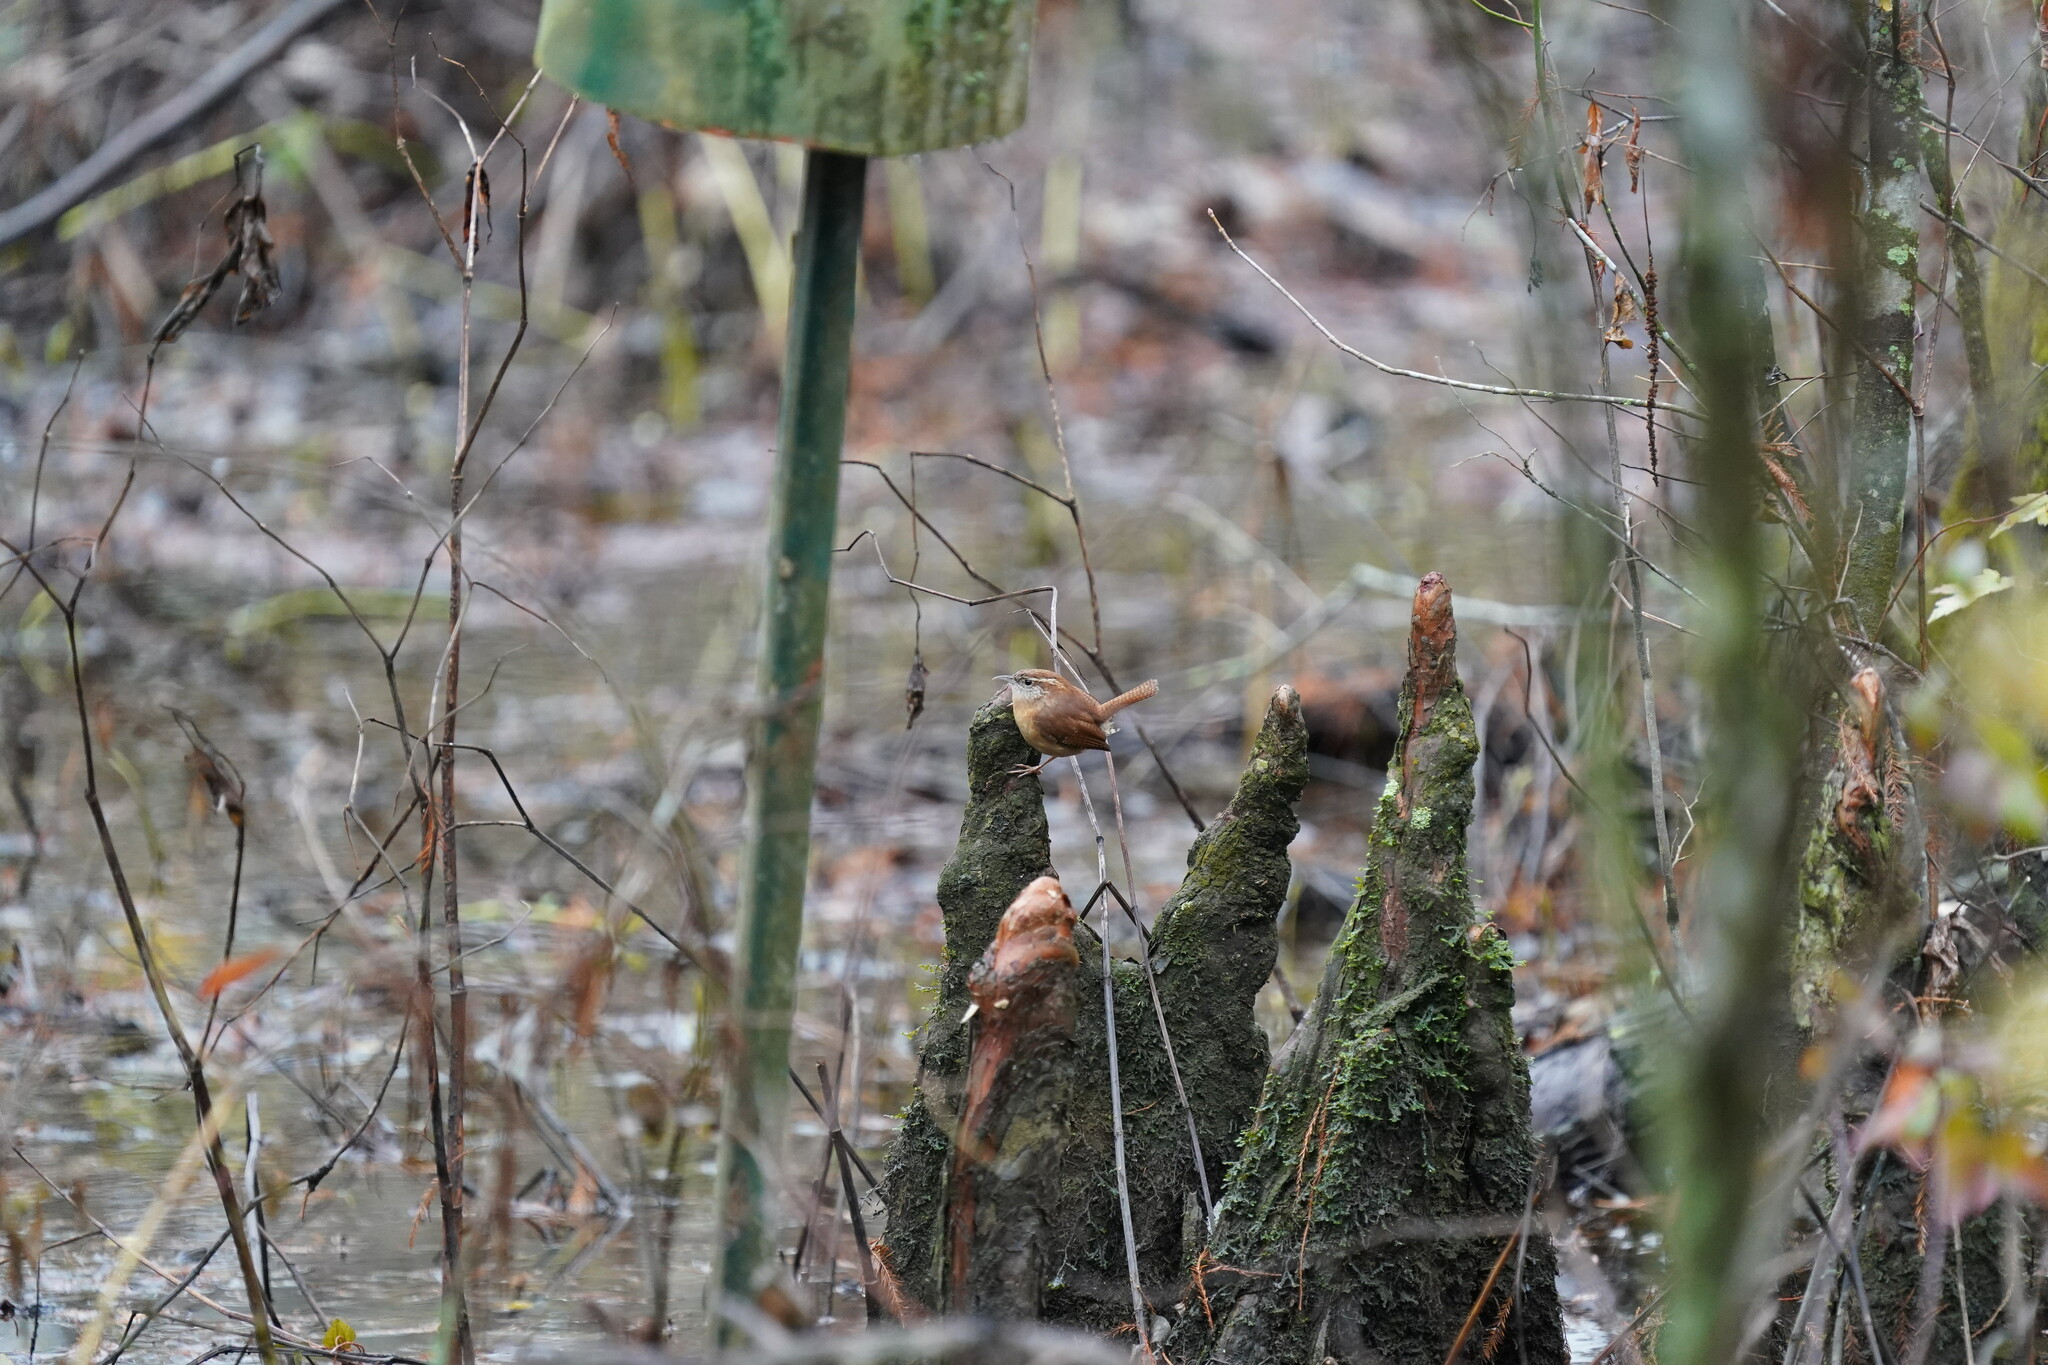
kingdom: Animalia
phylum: Chordata
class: Aves
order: Passeriformes
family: Troglodytidae
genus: Thryothorus
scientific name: Thryothorus ludovicianus
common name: Carolina wren
